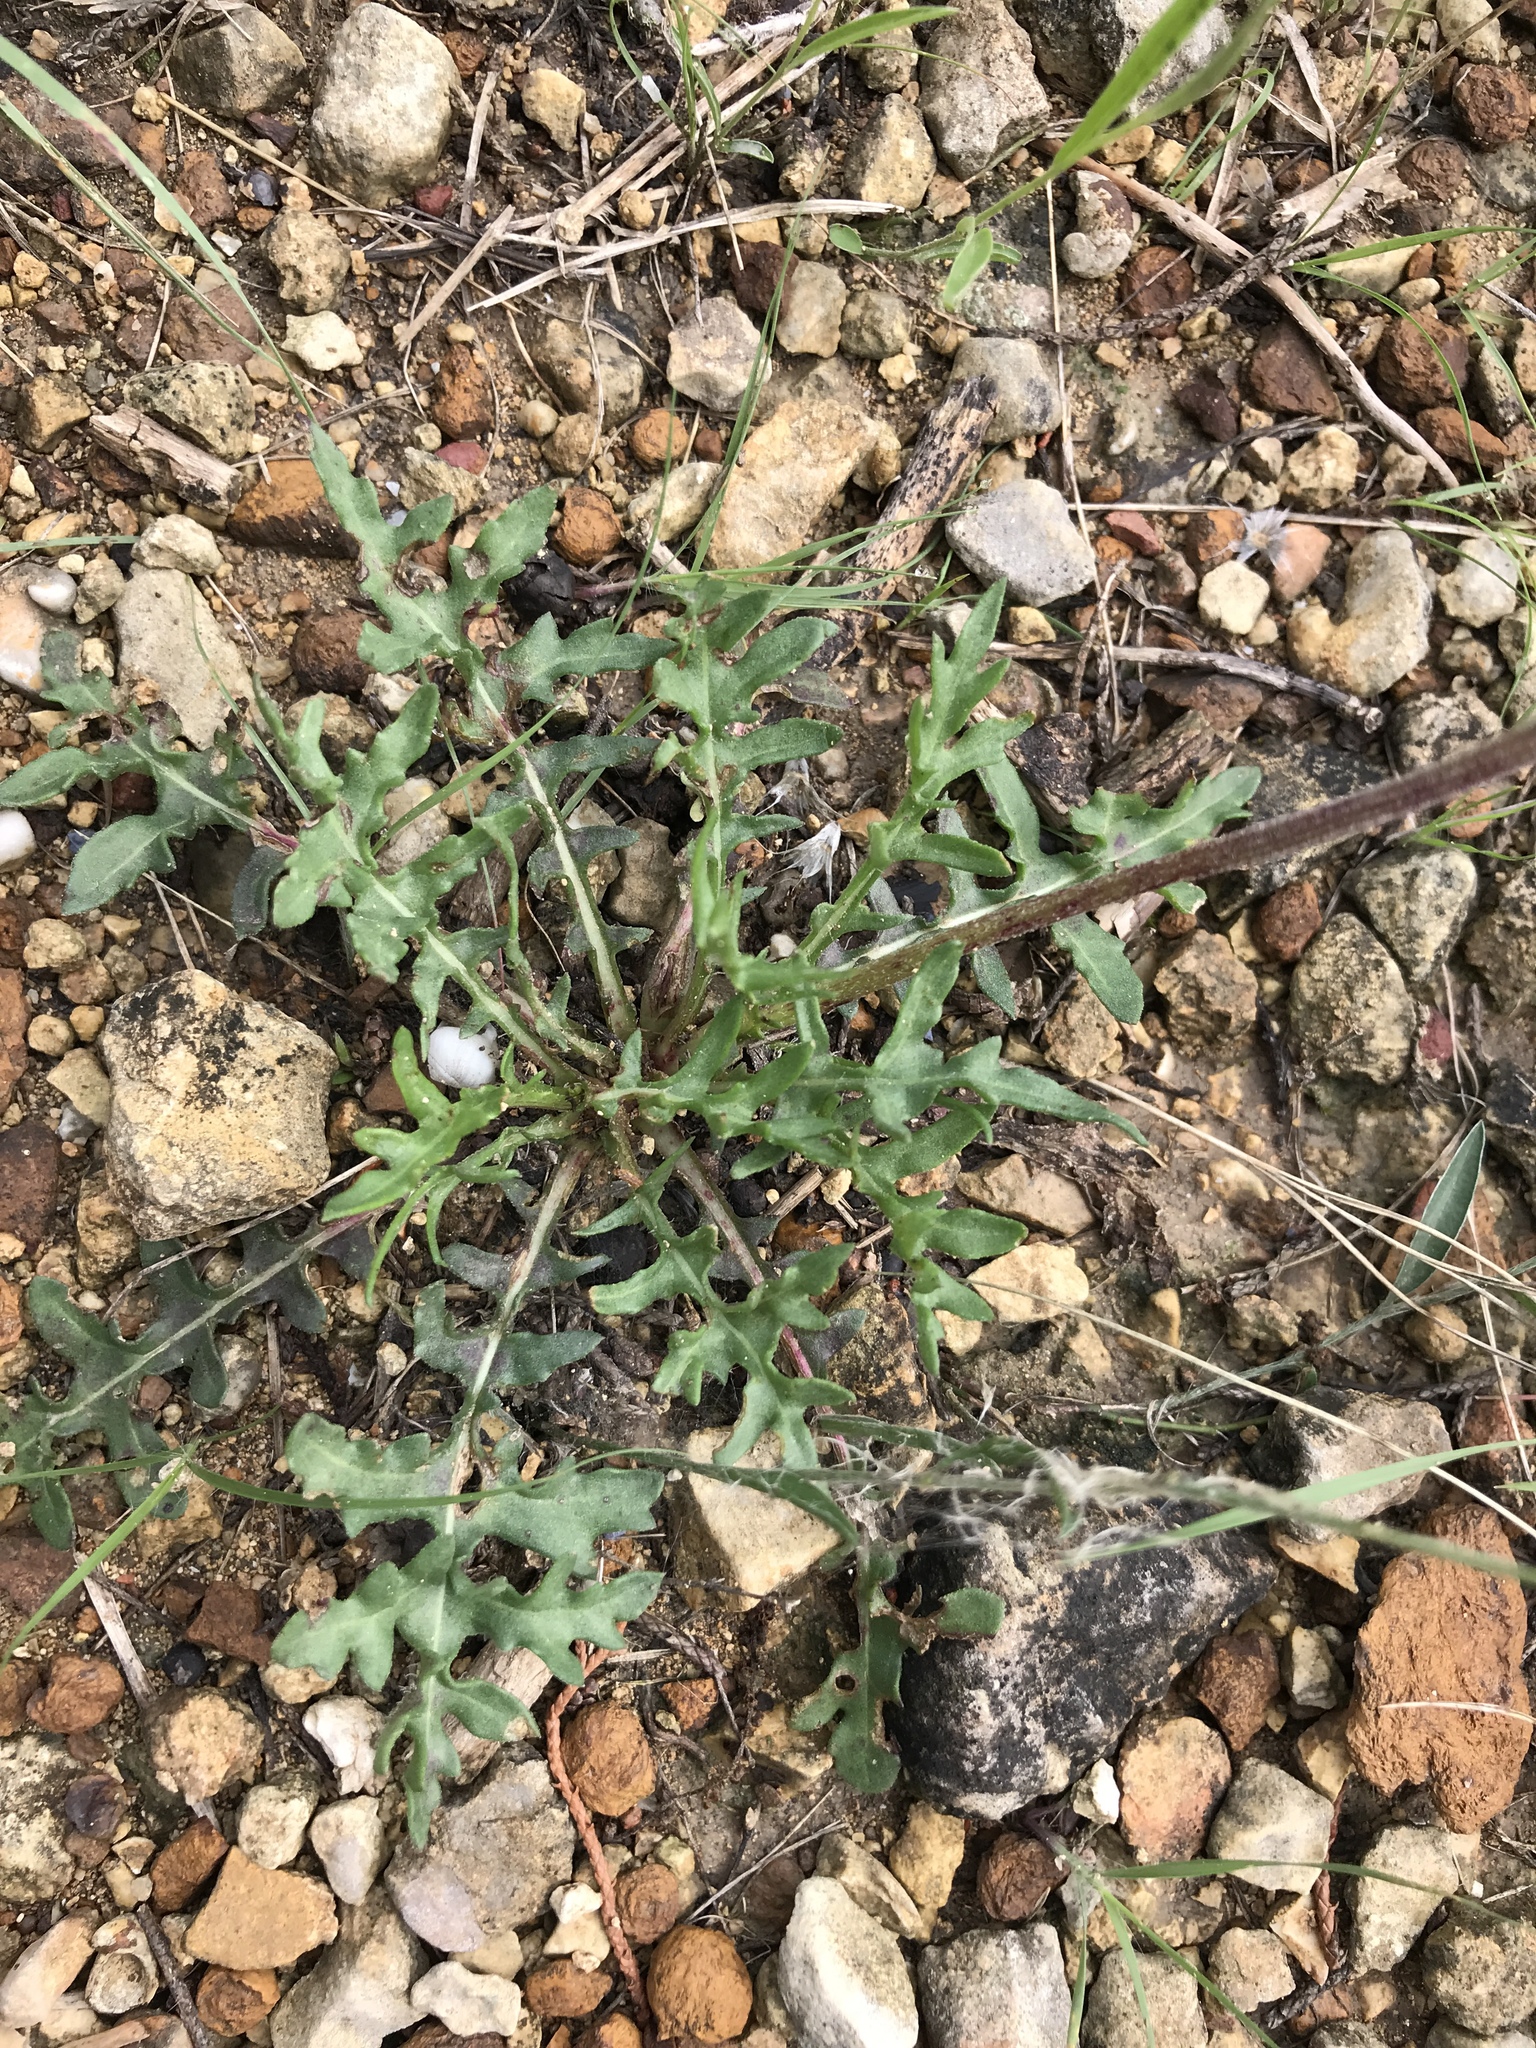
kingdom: Plantae
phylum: Tracheophyta
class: Magnoliopsida
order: Asterales
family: Asteraceae
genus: Gaillardia
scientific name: Gaillardia suavis
